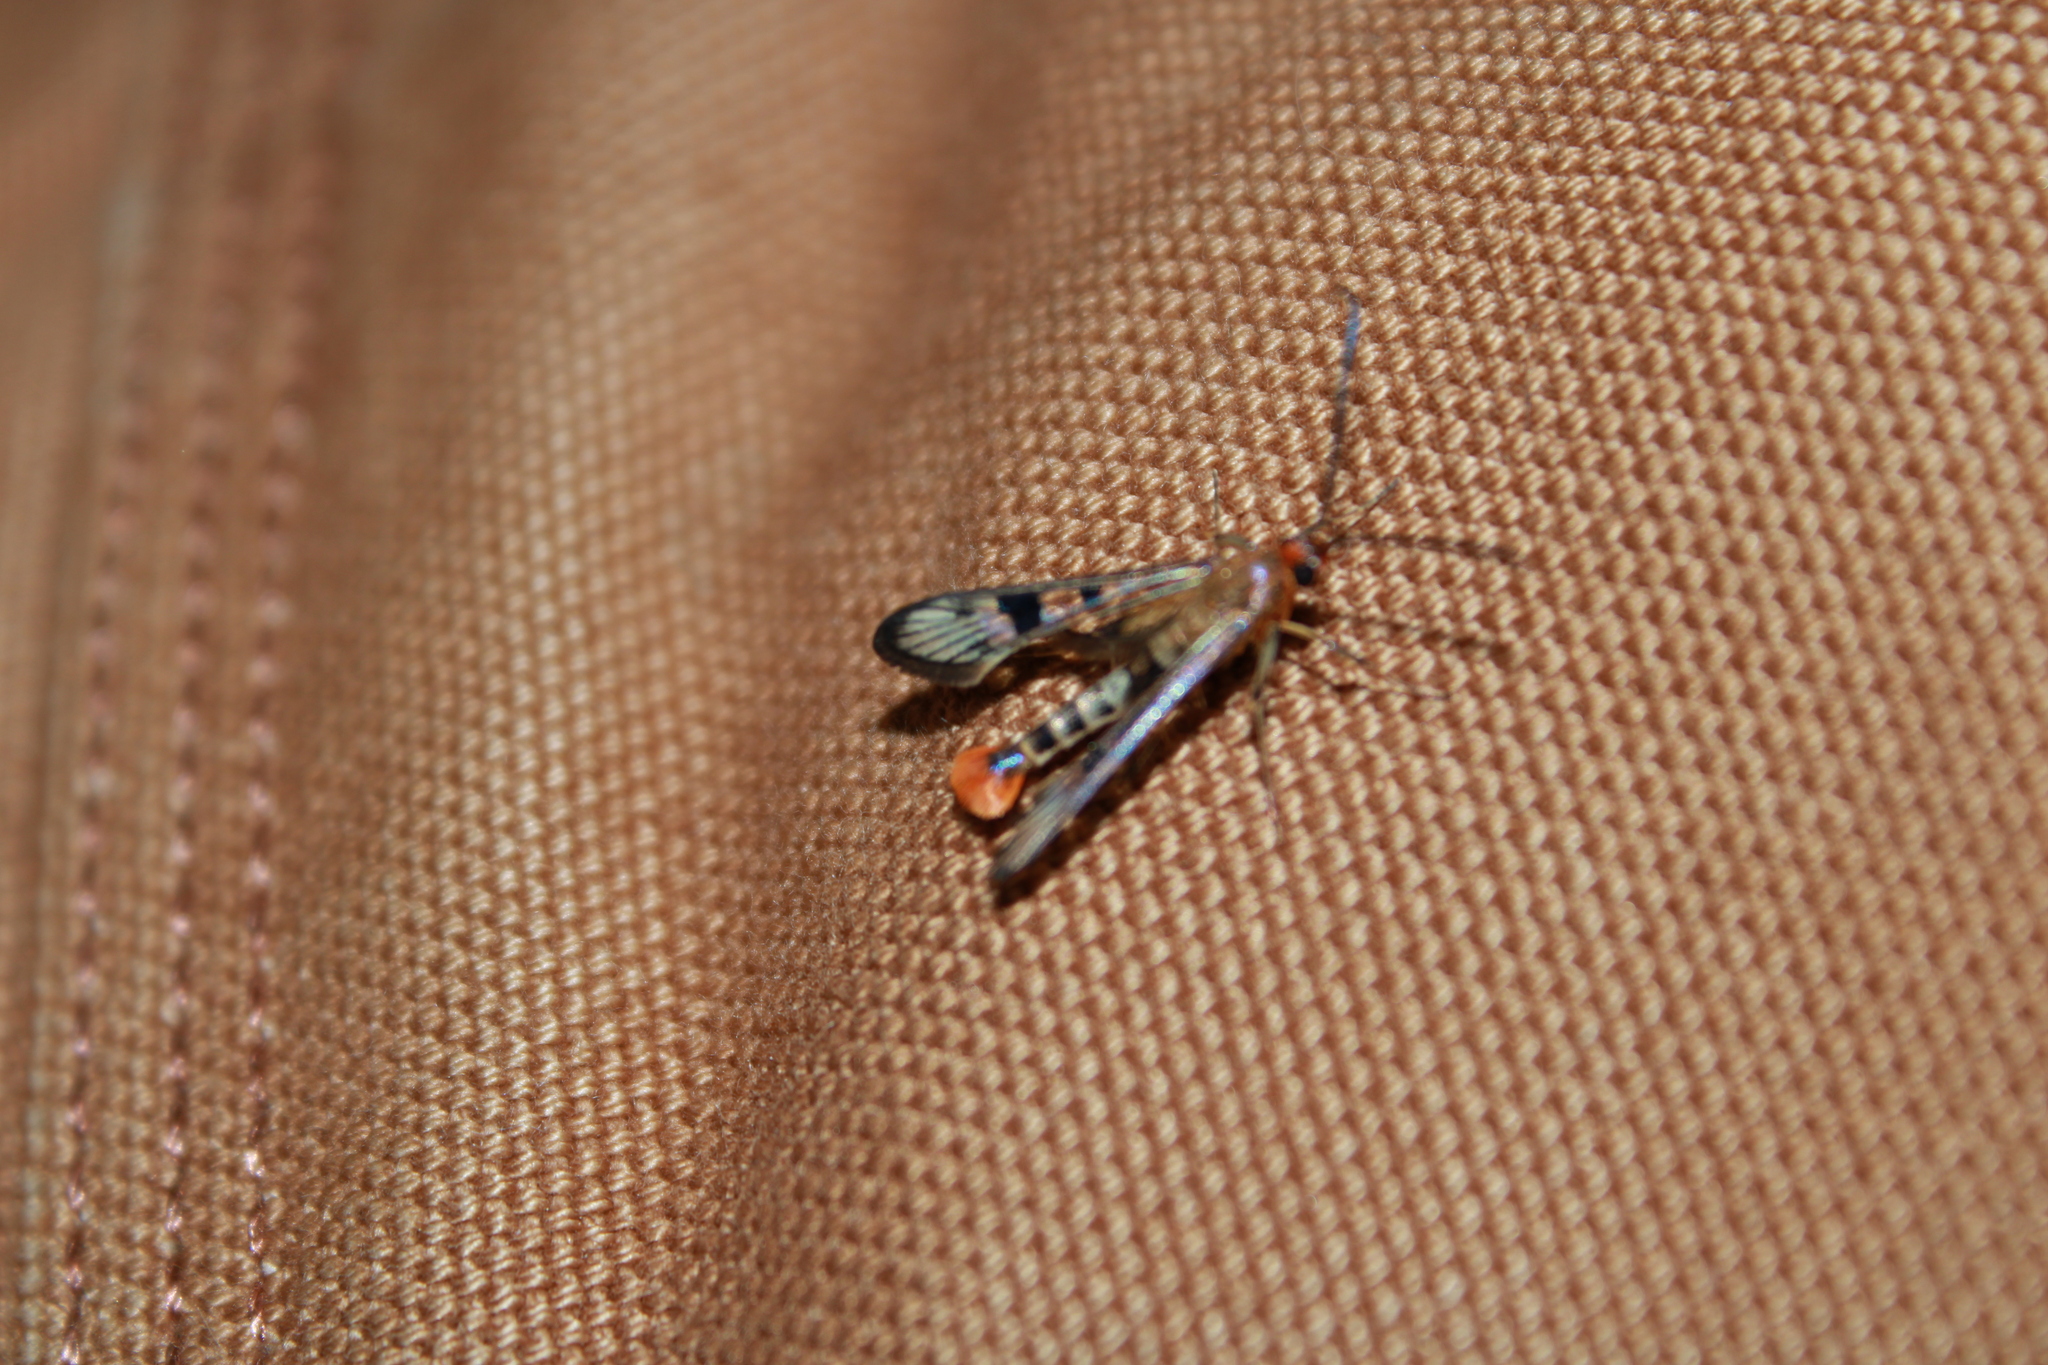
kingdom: Animalia
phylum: Arthropoda
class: Insecta
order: Lepidoptera
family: Sesiidae
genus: Synanthedon
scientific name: Synanthedon acerni
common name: Maple callus borer moth
